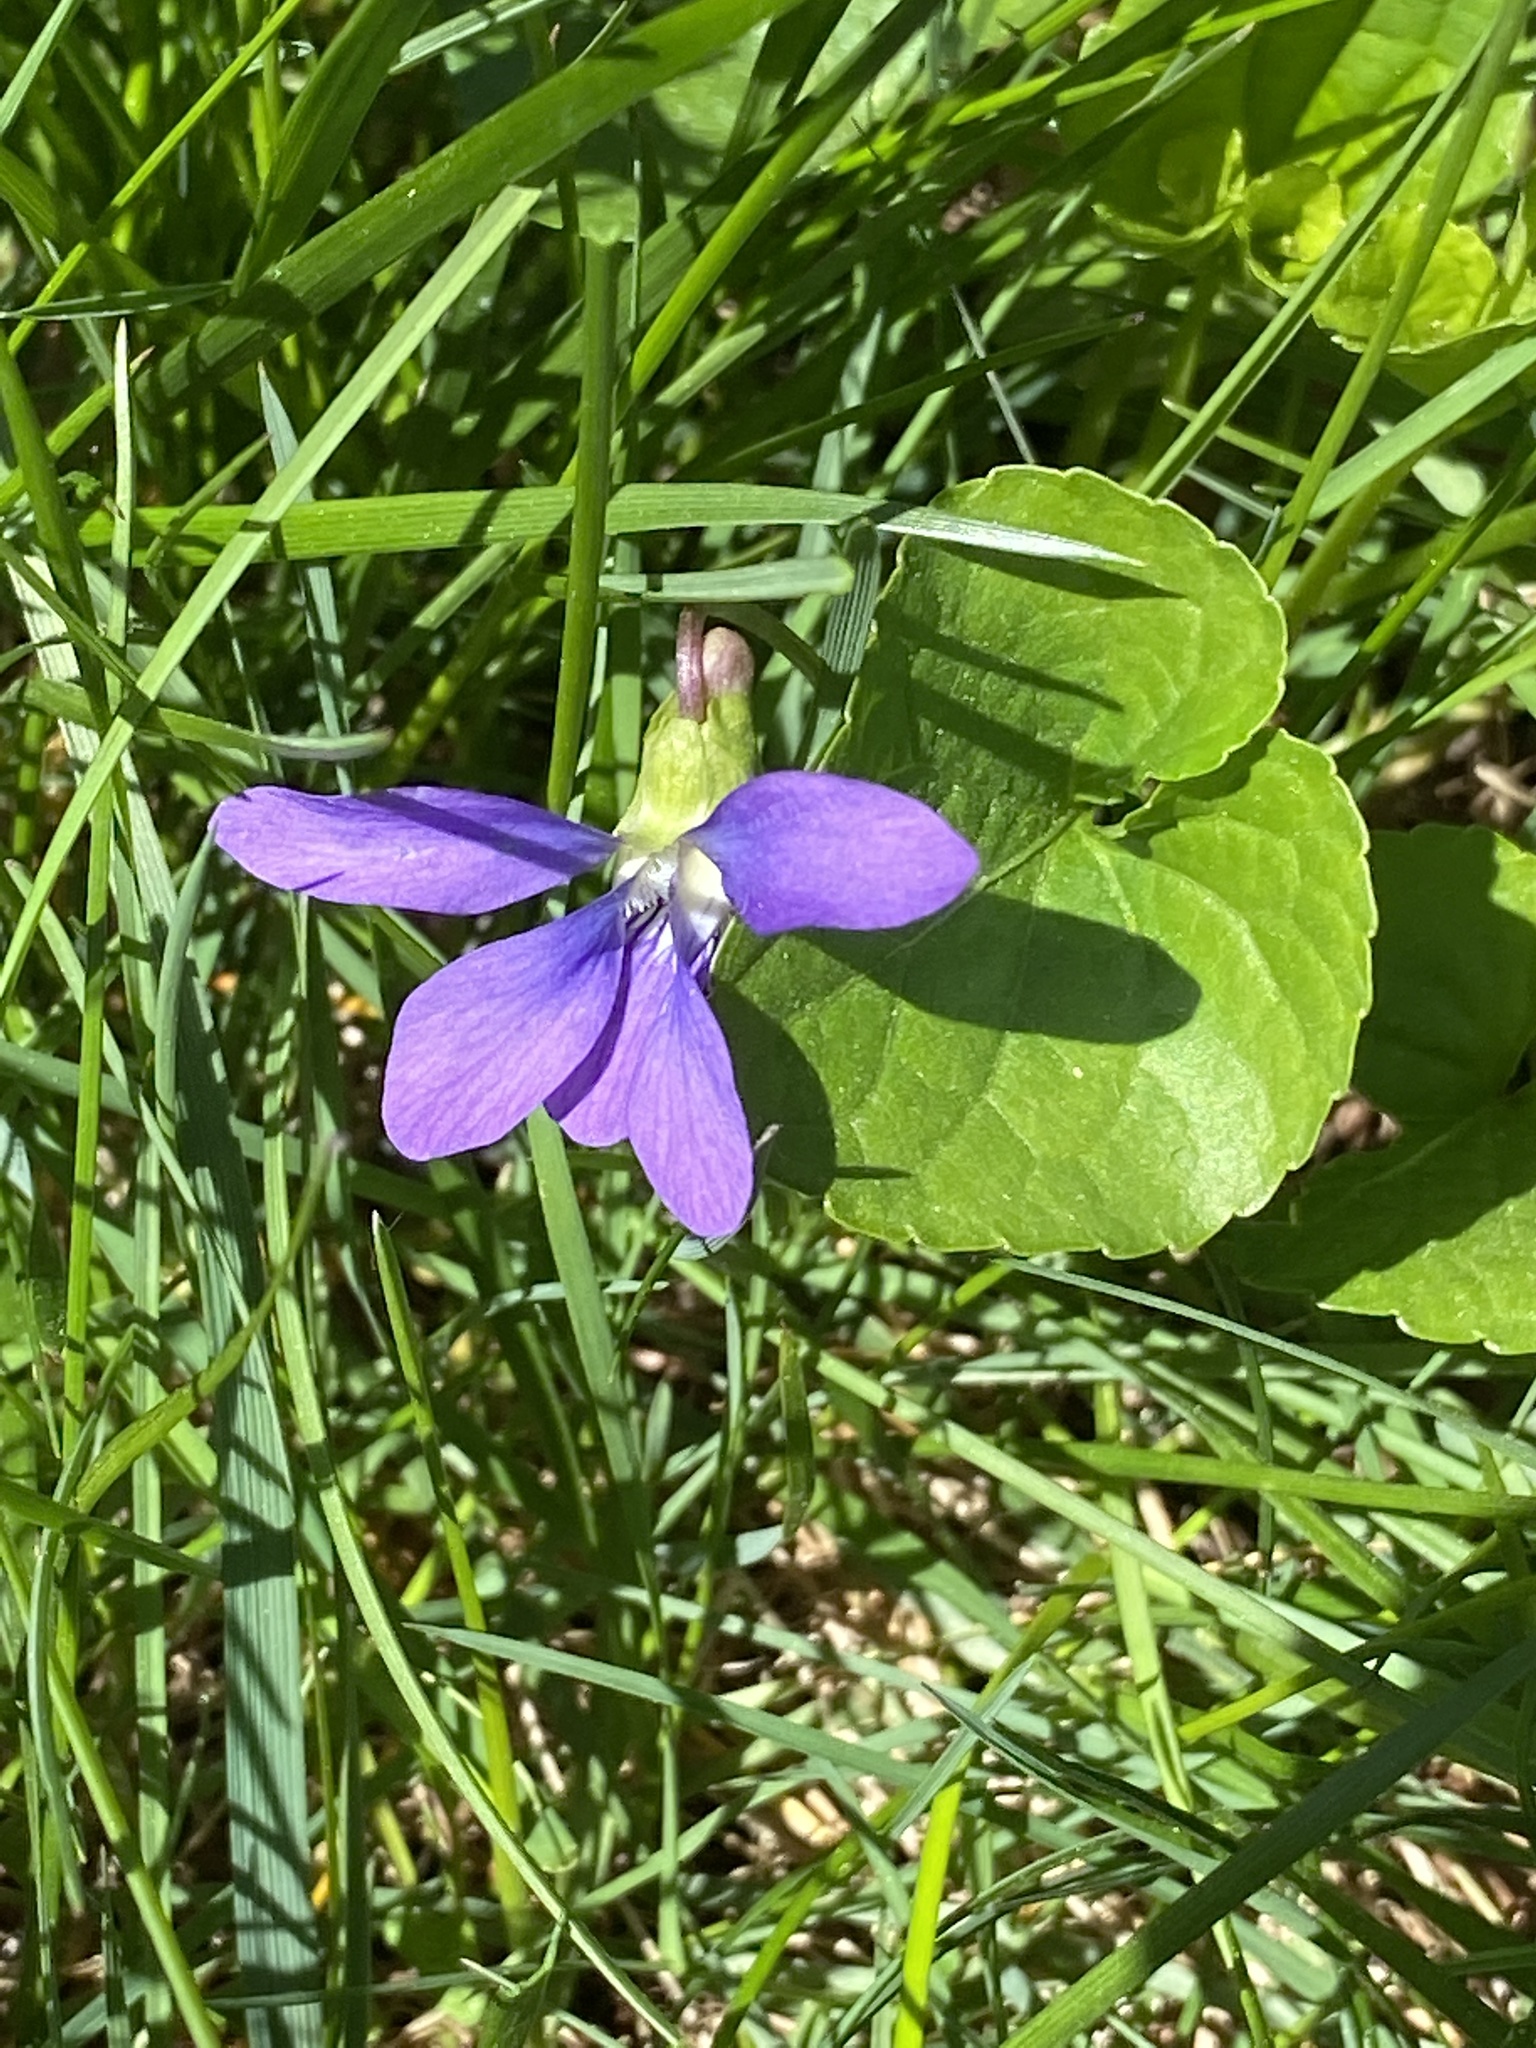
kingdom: Plantae
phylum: Tracheophyta
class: Magnoliopsida
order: Malpighiales
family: Violaceae
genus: Viola
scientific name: Viola sororia
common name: Dooryard violet
